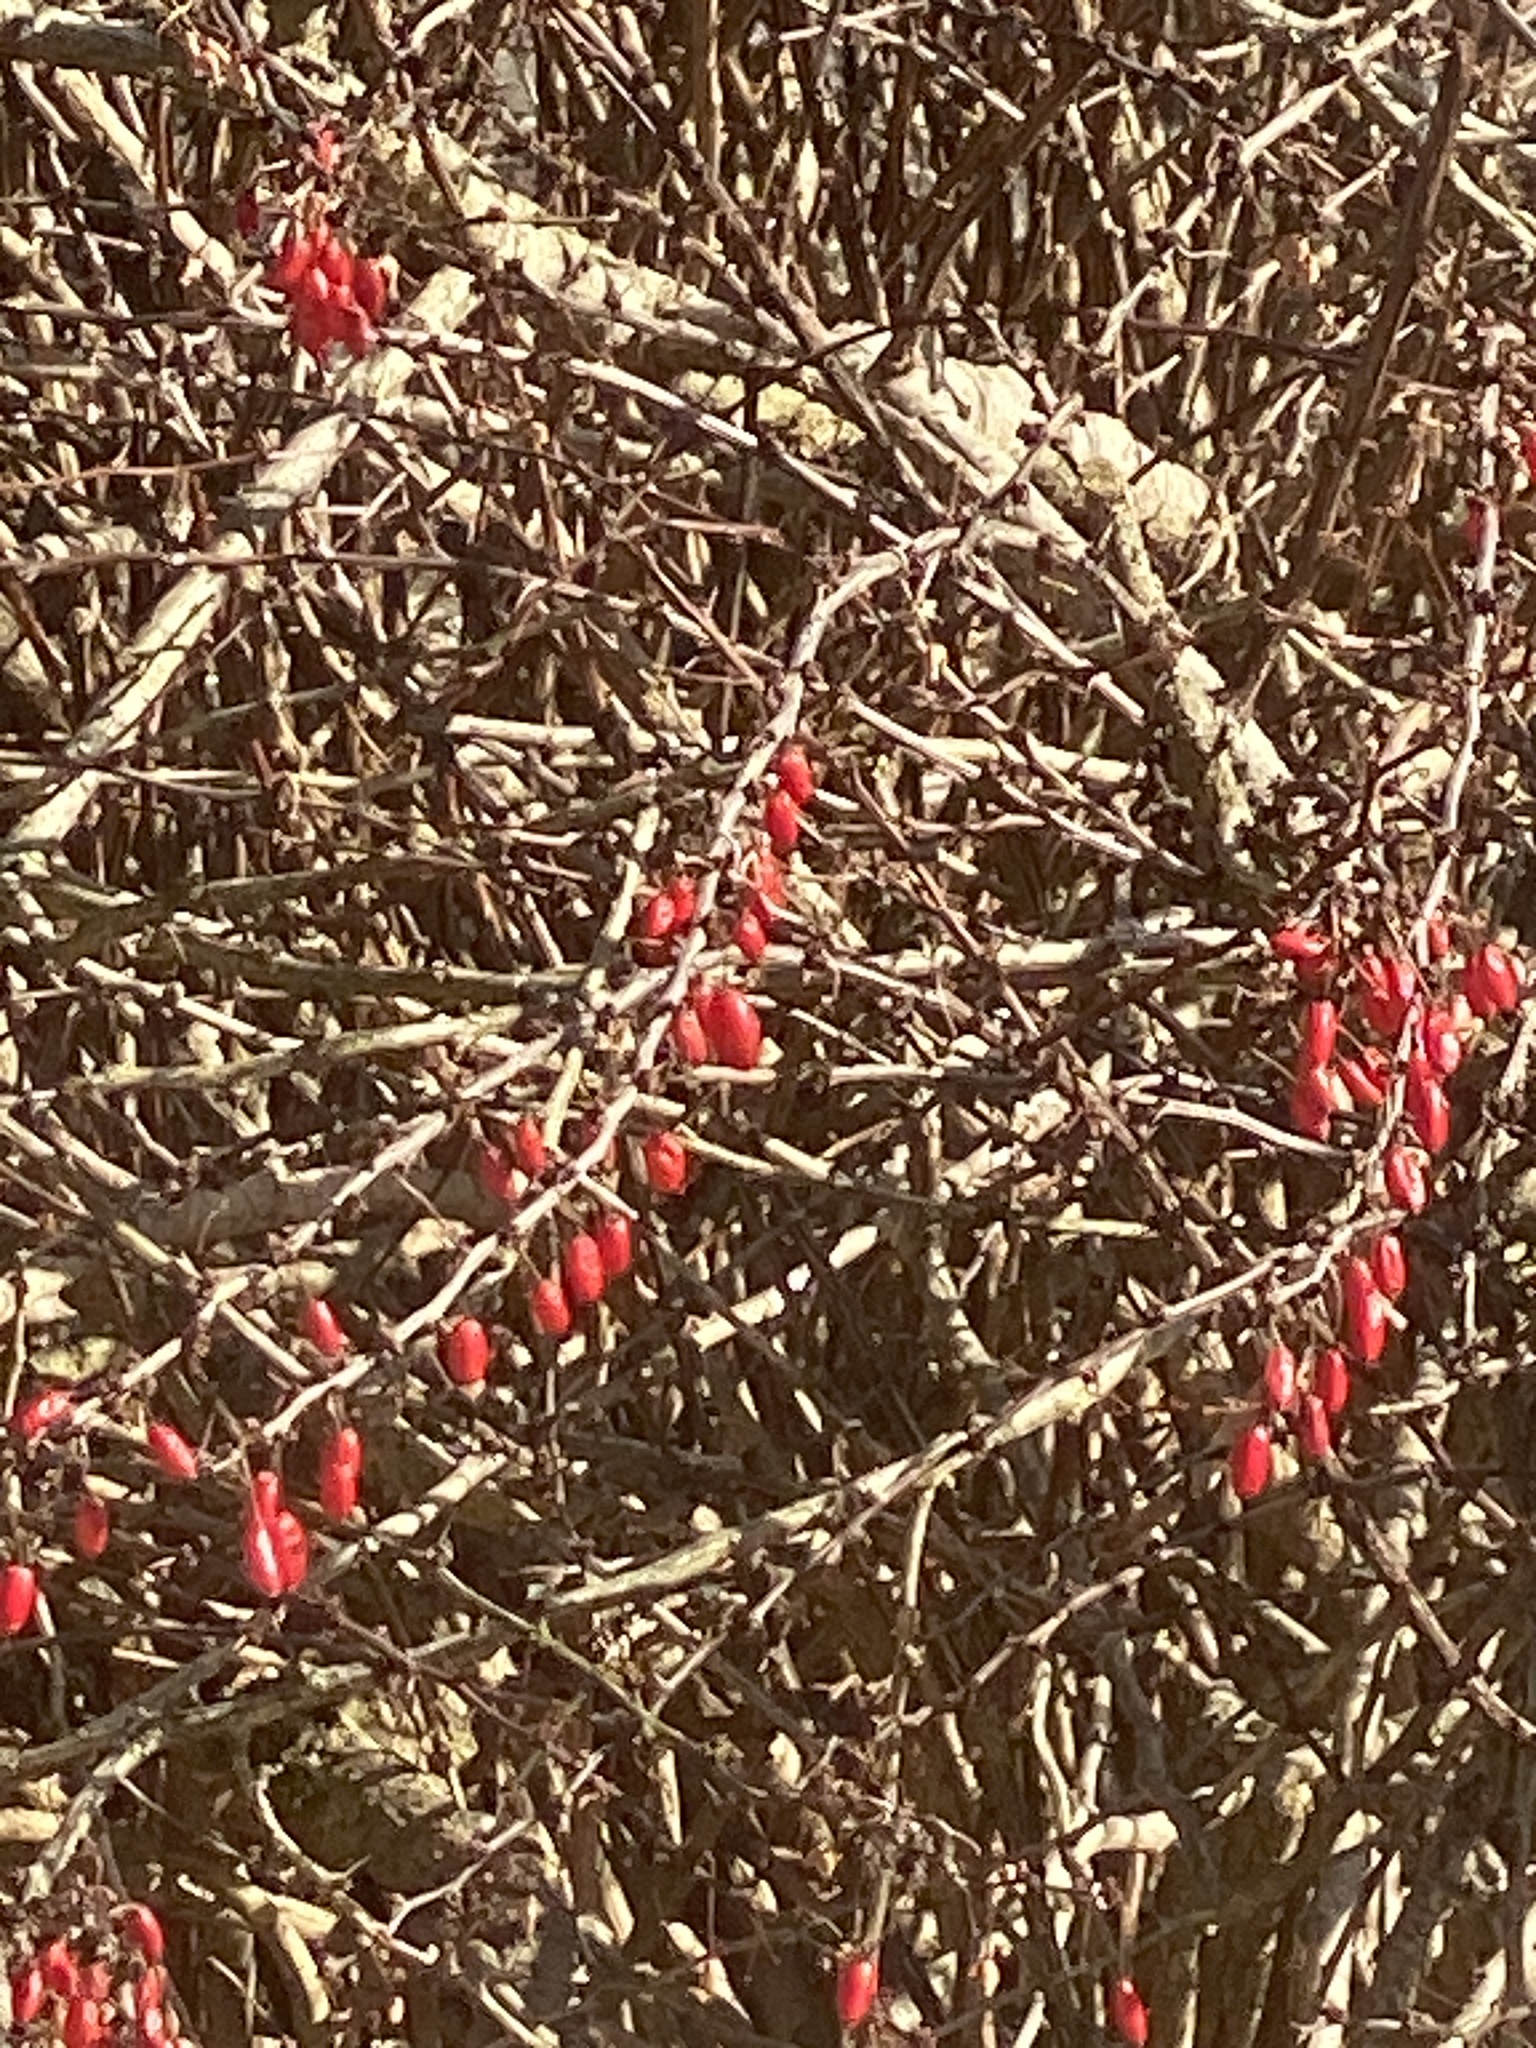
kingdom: Plantae
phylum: Tracheophyta
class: Magnoliopsida
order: Ranunculales
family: Berberidaceae
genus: Berberis
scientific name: Berberis thunbergii
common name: Japanese barberry
